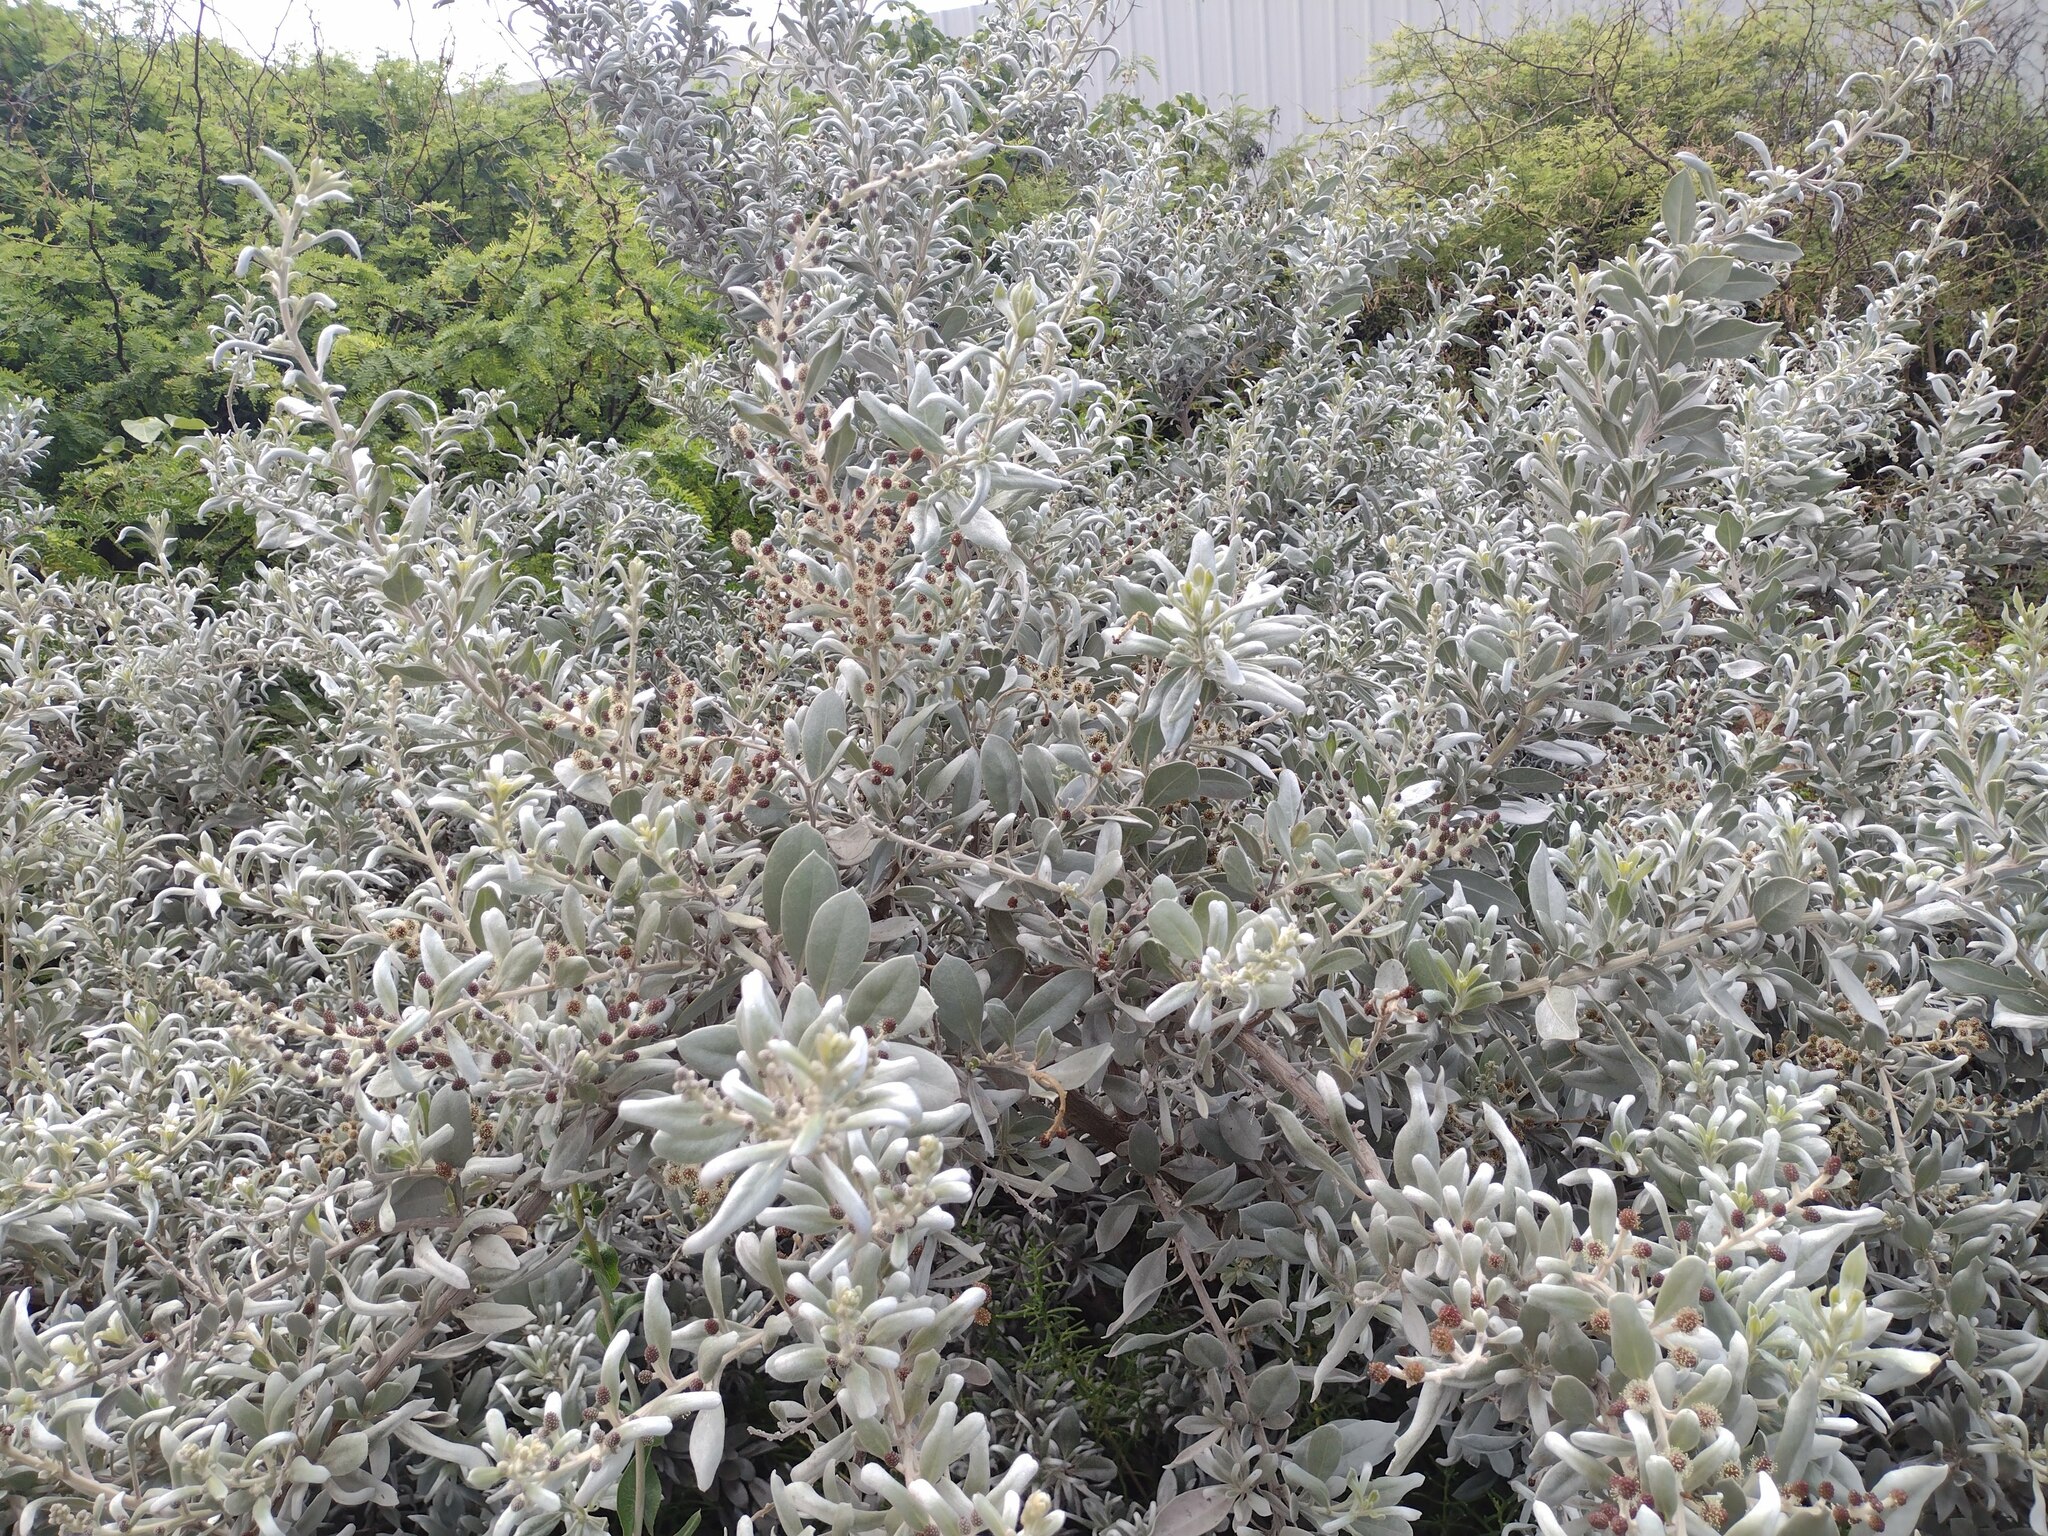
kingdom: Plantae
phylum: Tracheophyta
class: Magnoliopsida
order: Myrtales
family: Combretaceae
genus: Conocarpus
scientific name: Conocarpus erectus
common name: Button mangrove
